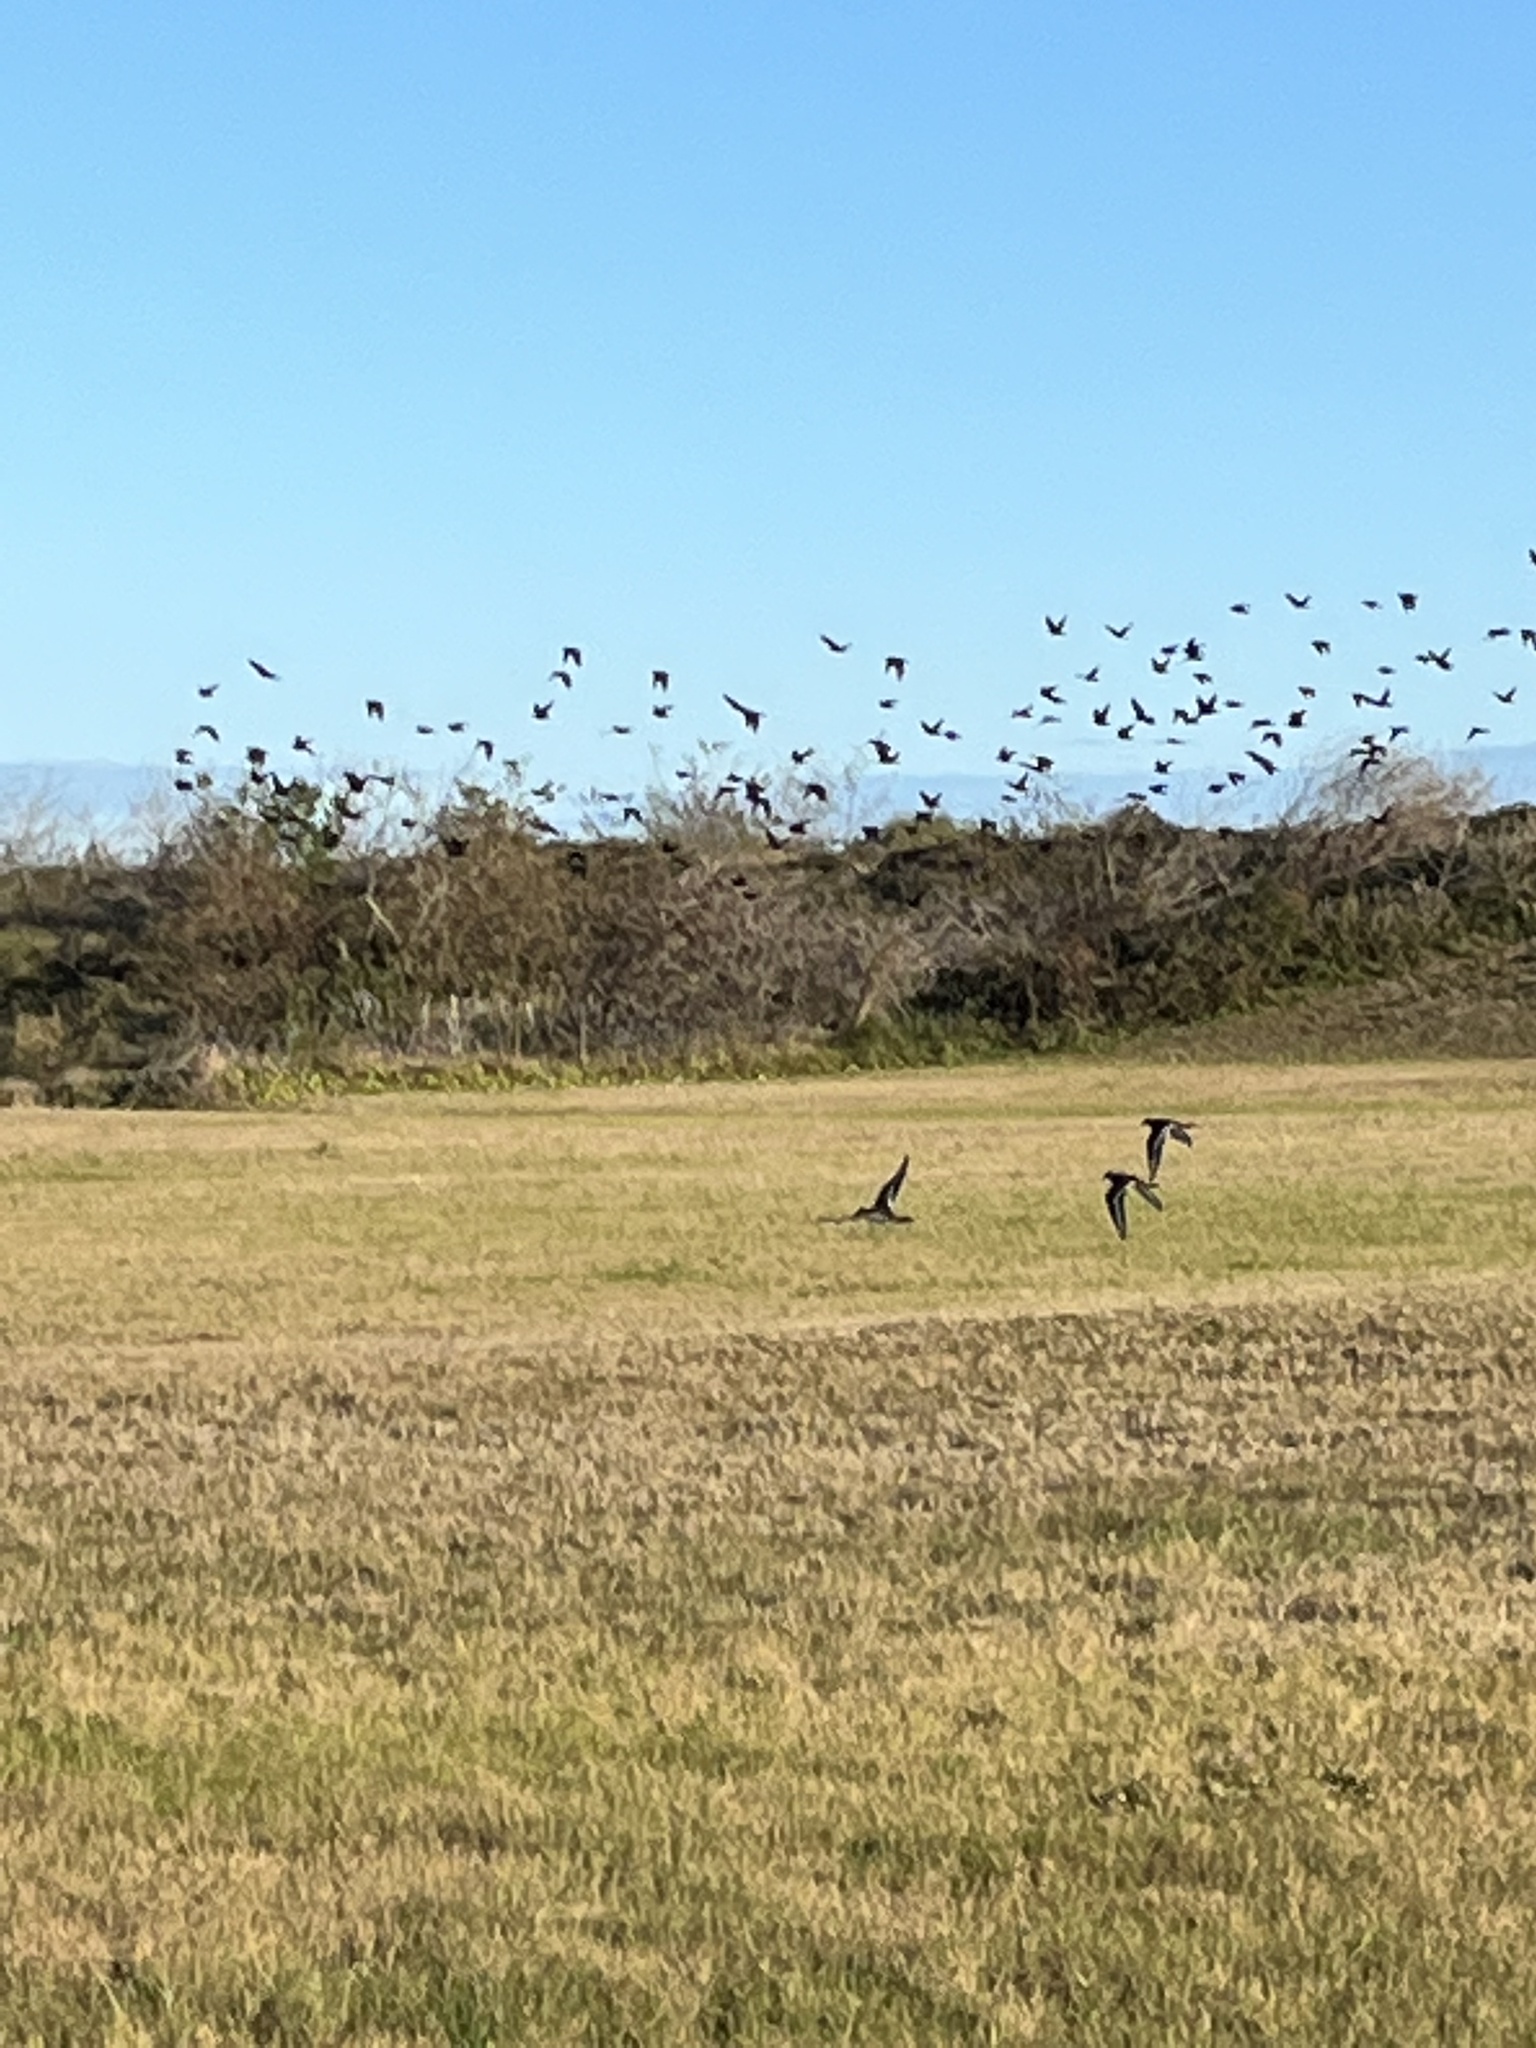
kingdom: Animalia
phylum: Chordata
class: Aves
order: Charadriiformes
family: Charadriidae
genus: Charadrius
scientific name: Charadrius vociferus
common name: Killdeer
